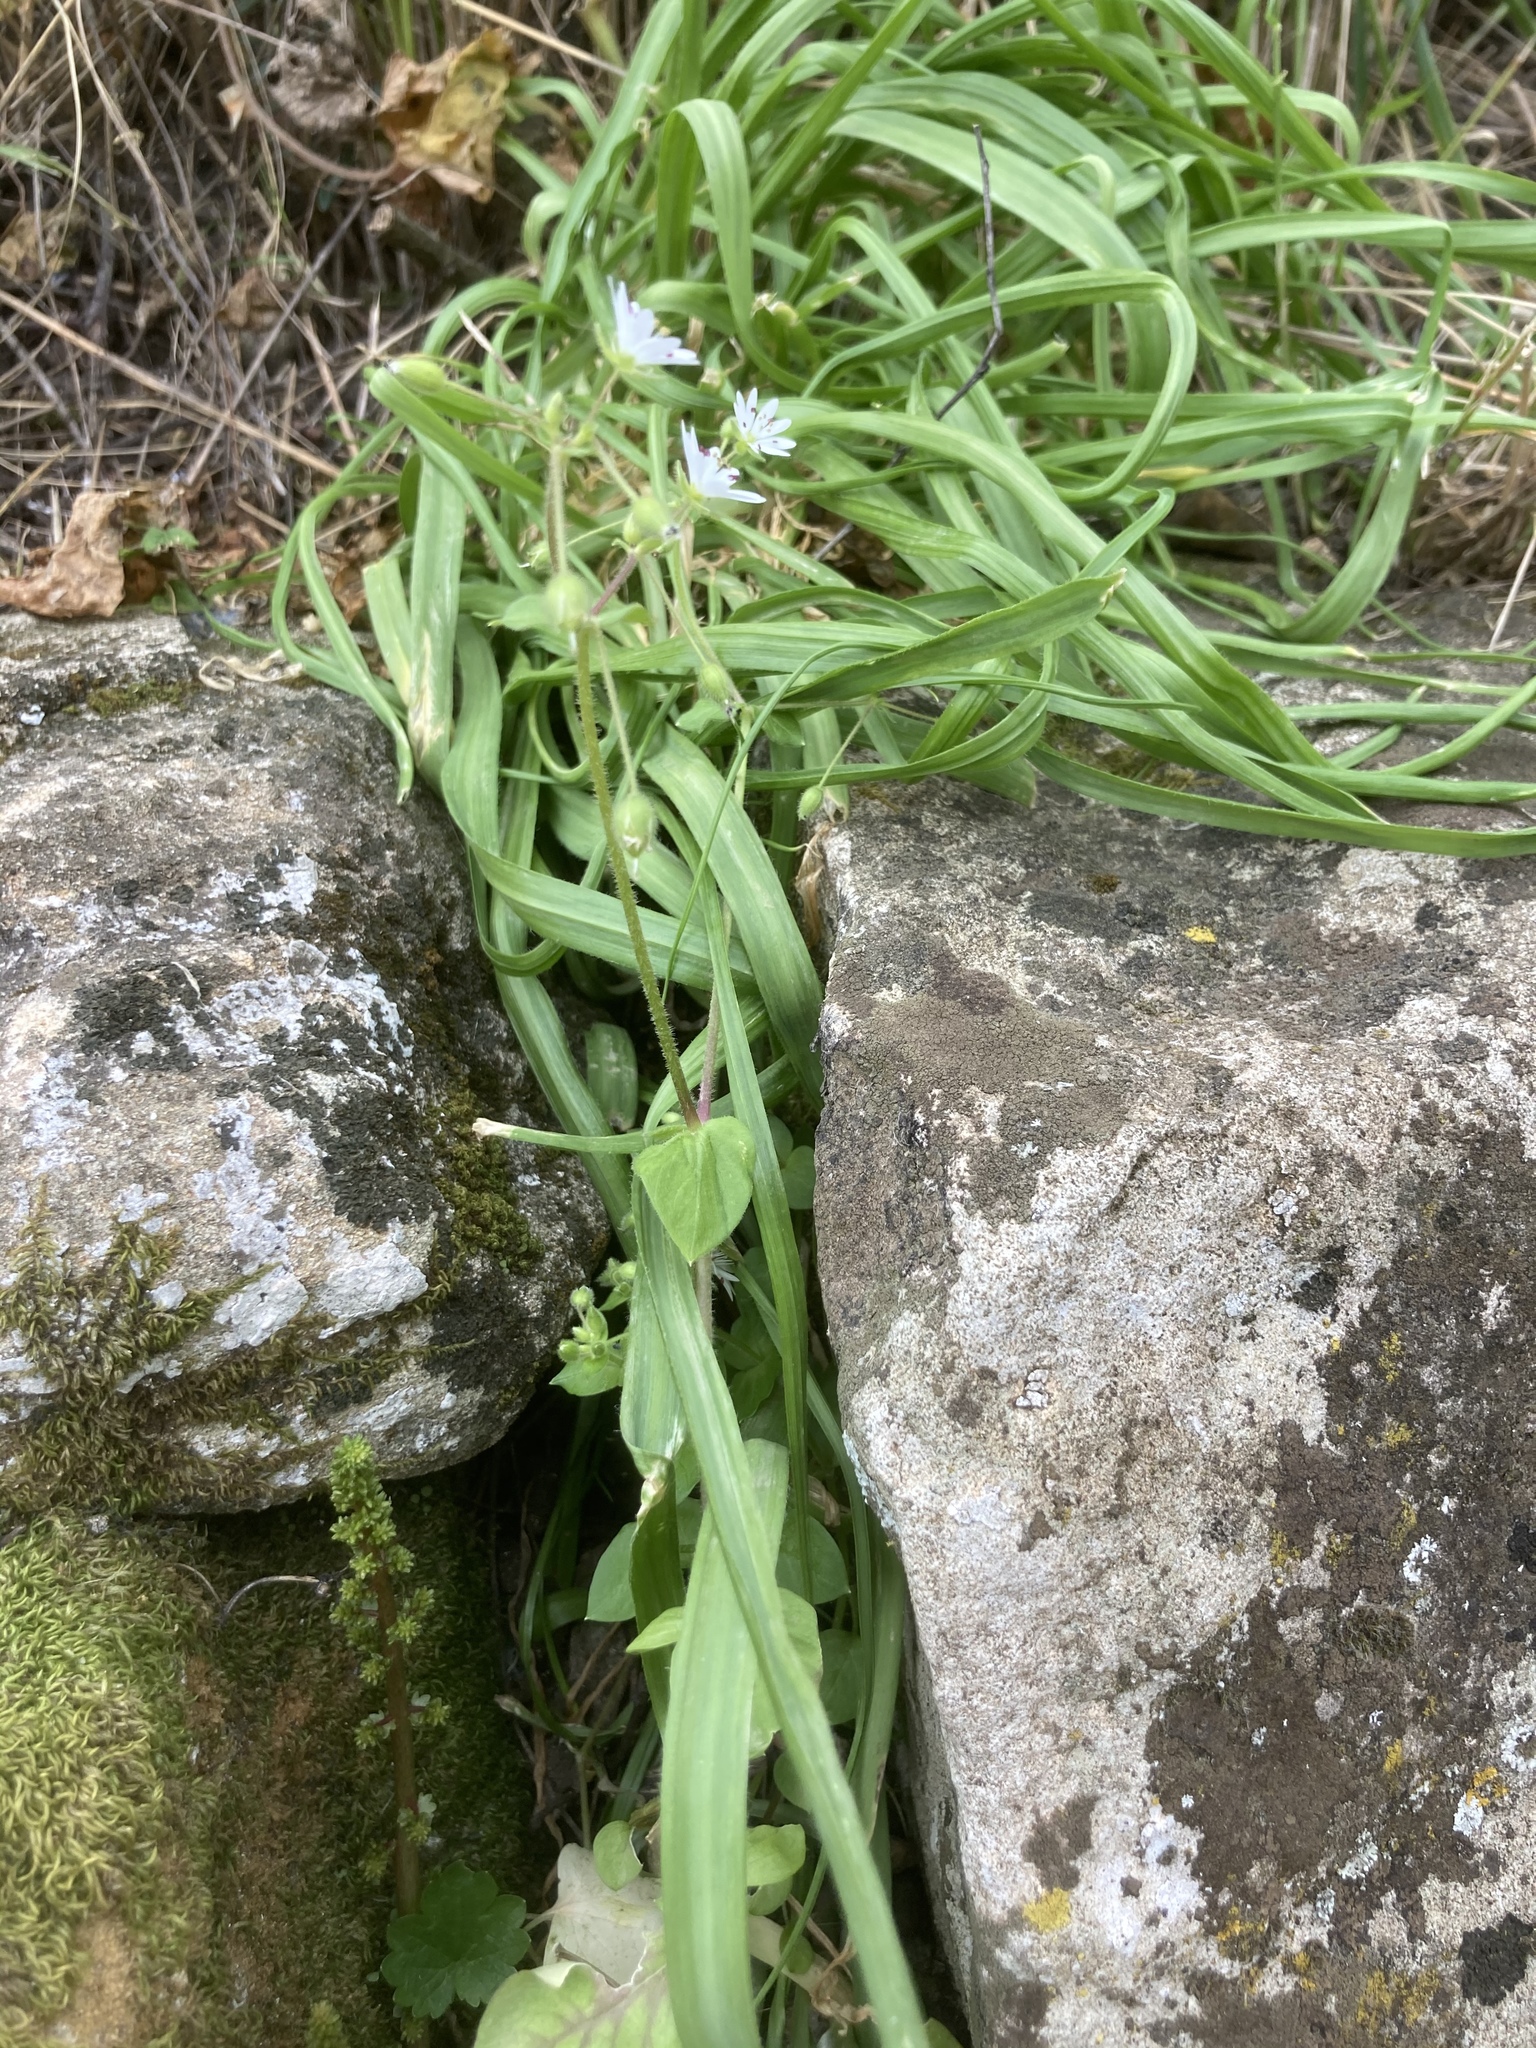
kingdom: Plantae
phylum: Tracheophyta
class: Magnoliopsida
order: Caryophyllales
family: Caryophyllaceae
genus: Stellaria
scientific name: Stellaria cupaniana
